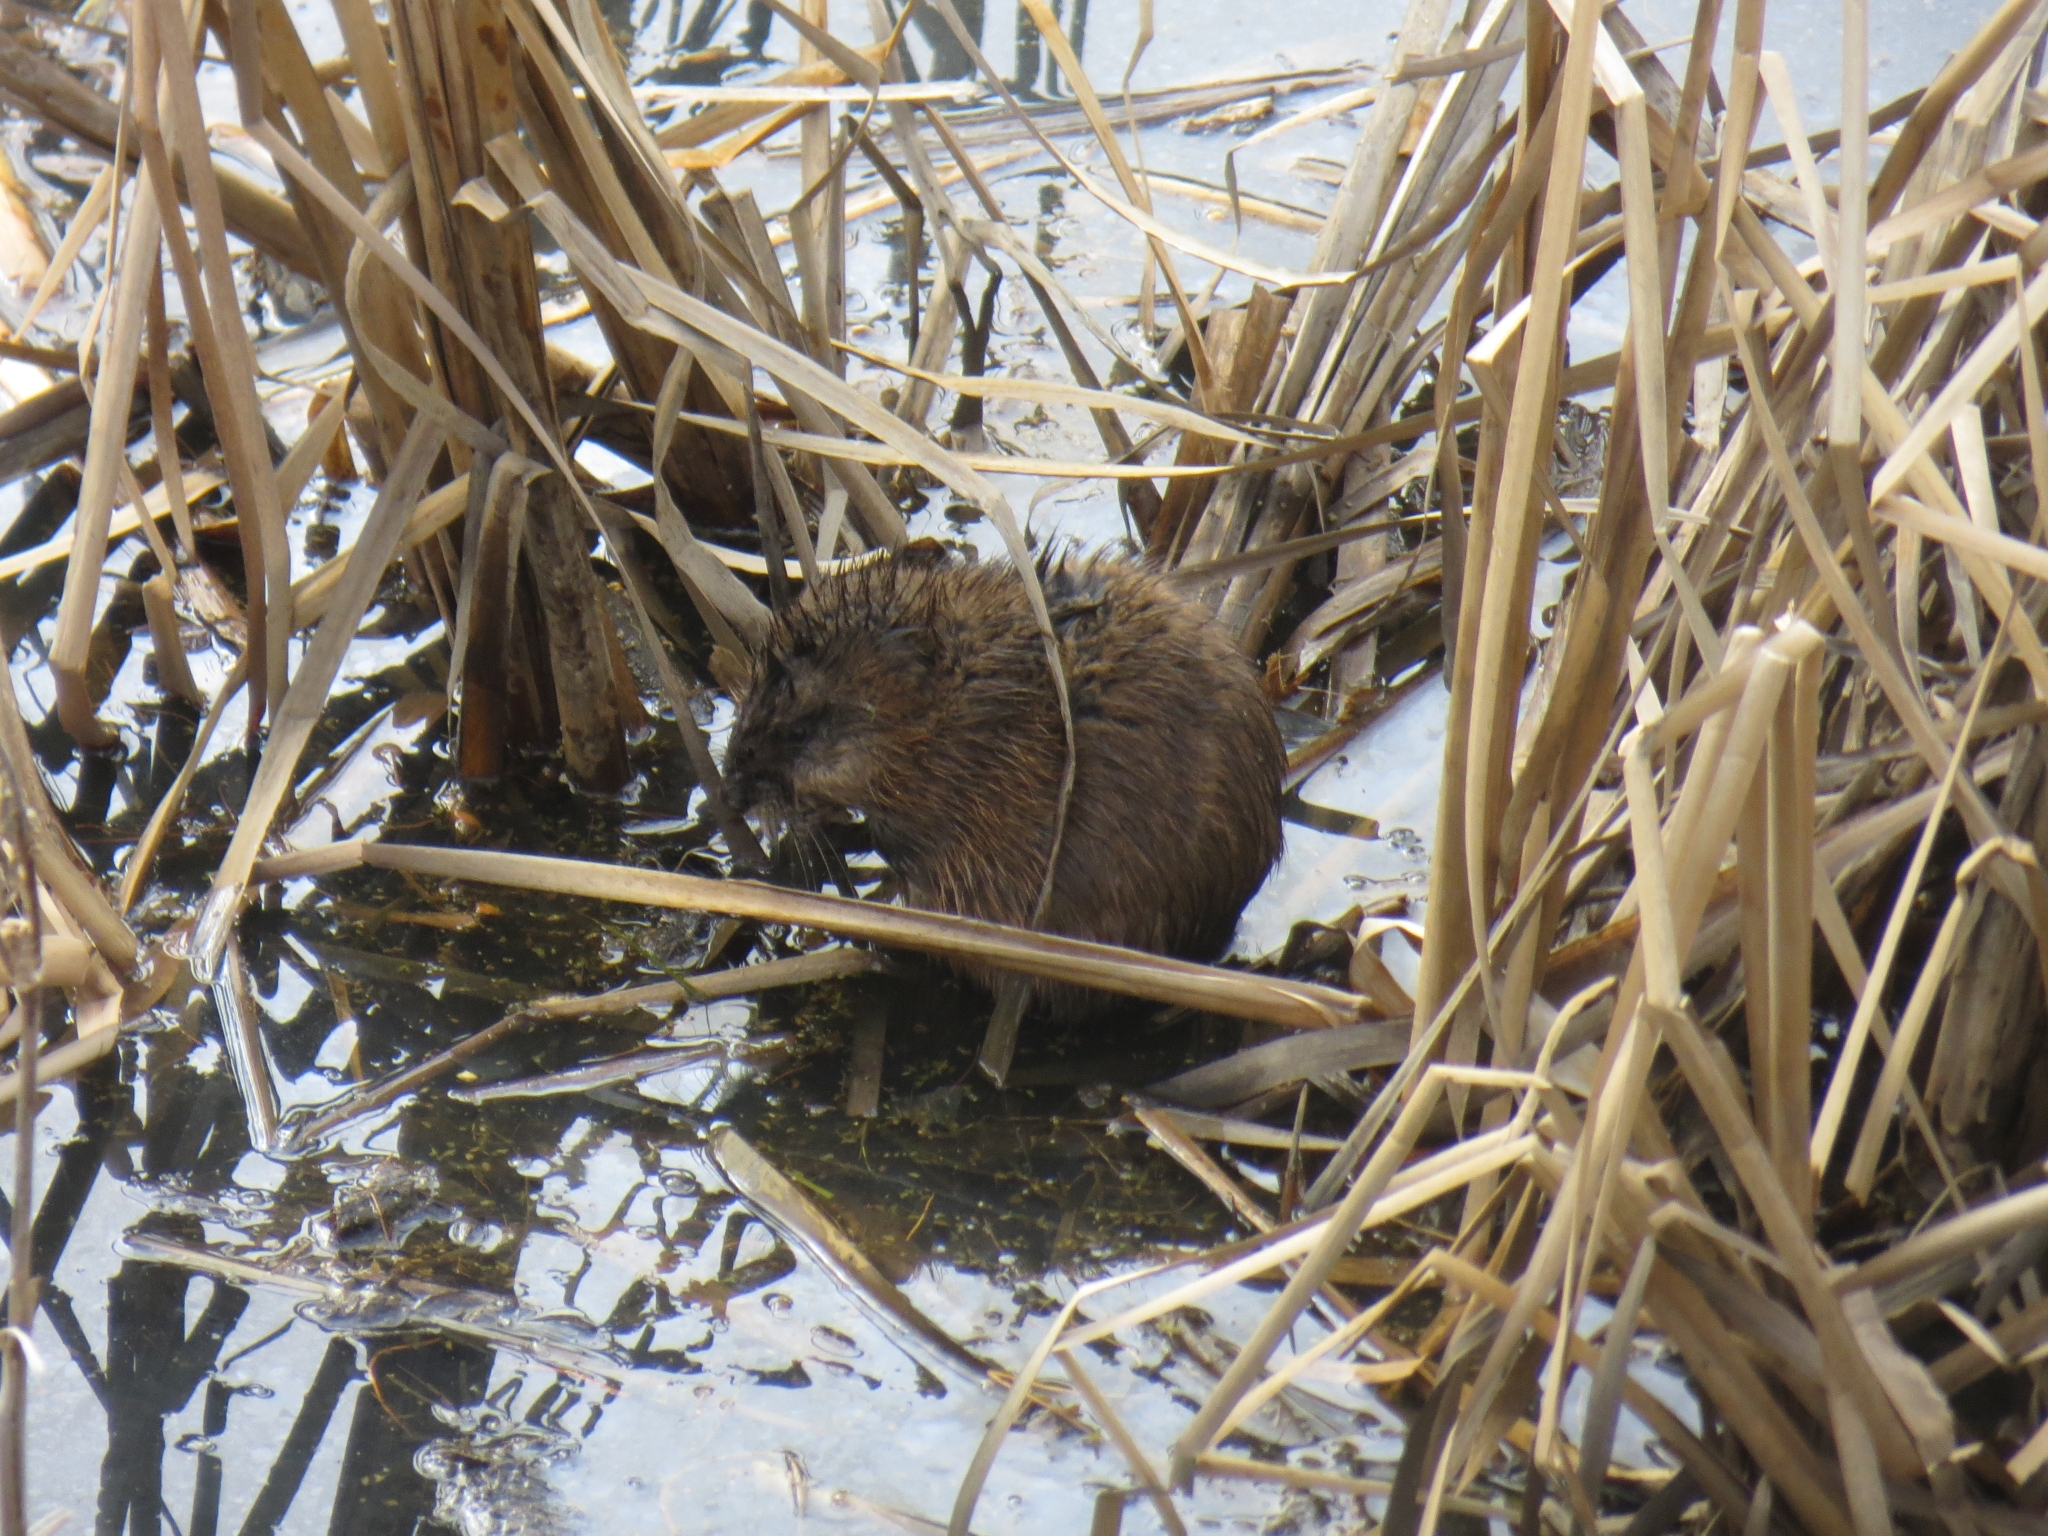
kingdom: Animalia
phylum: Chordata
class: Mammalia
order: Rodentia
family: Cricetidae
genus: Ondatra
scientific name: Ondatra zibethicus
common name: Muskrat
